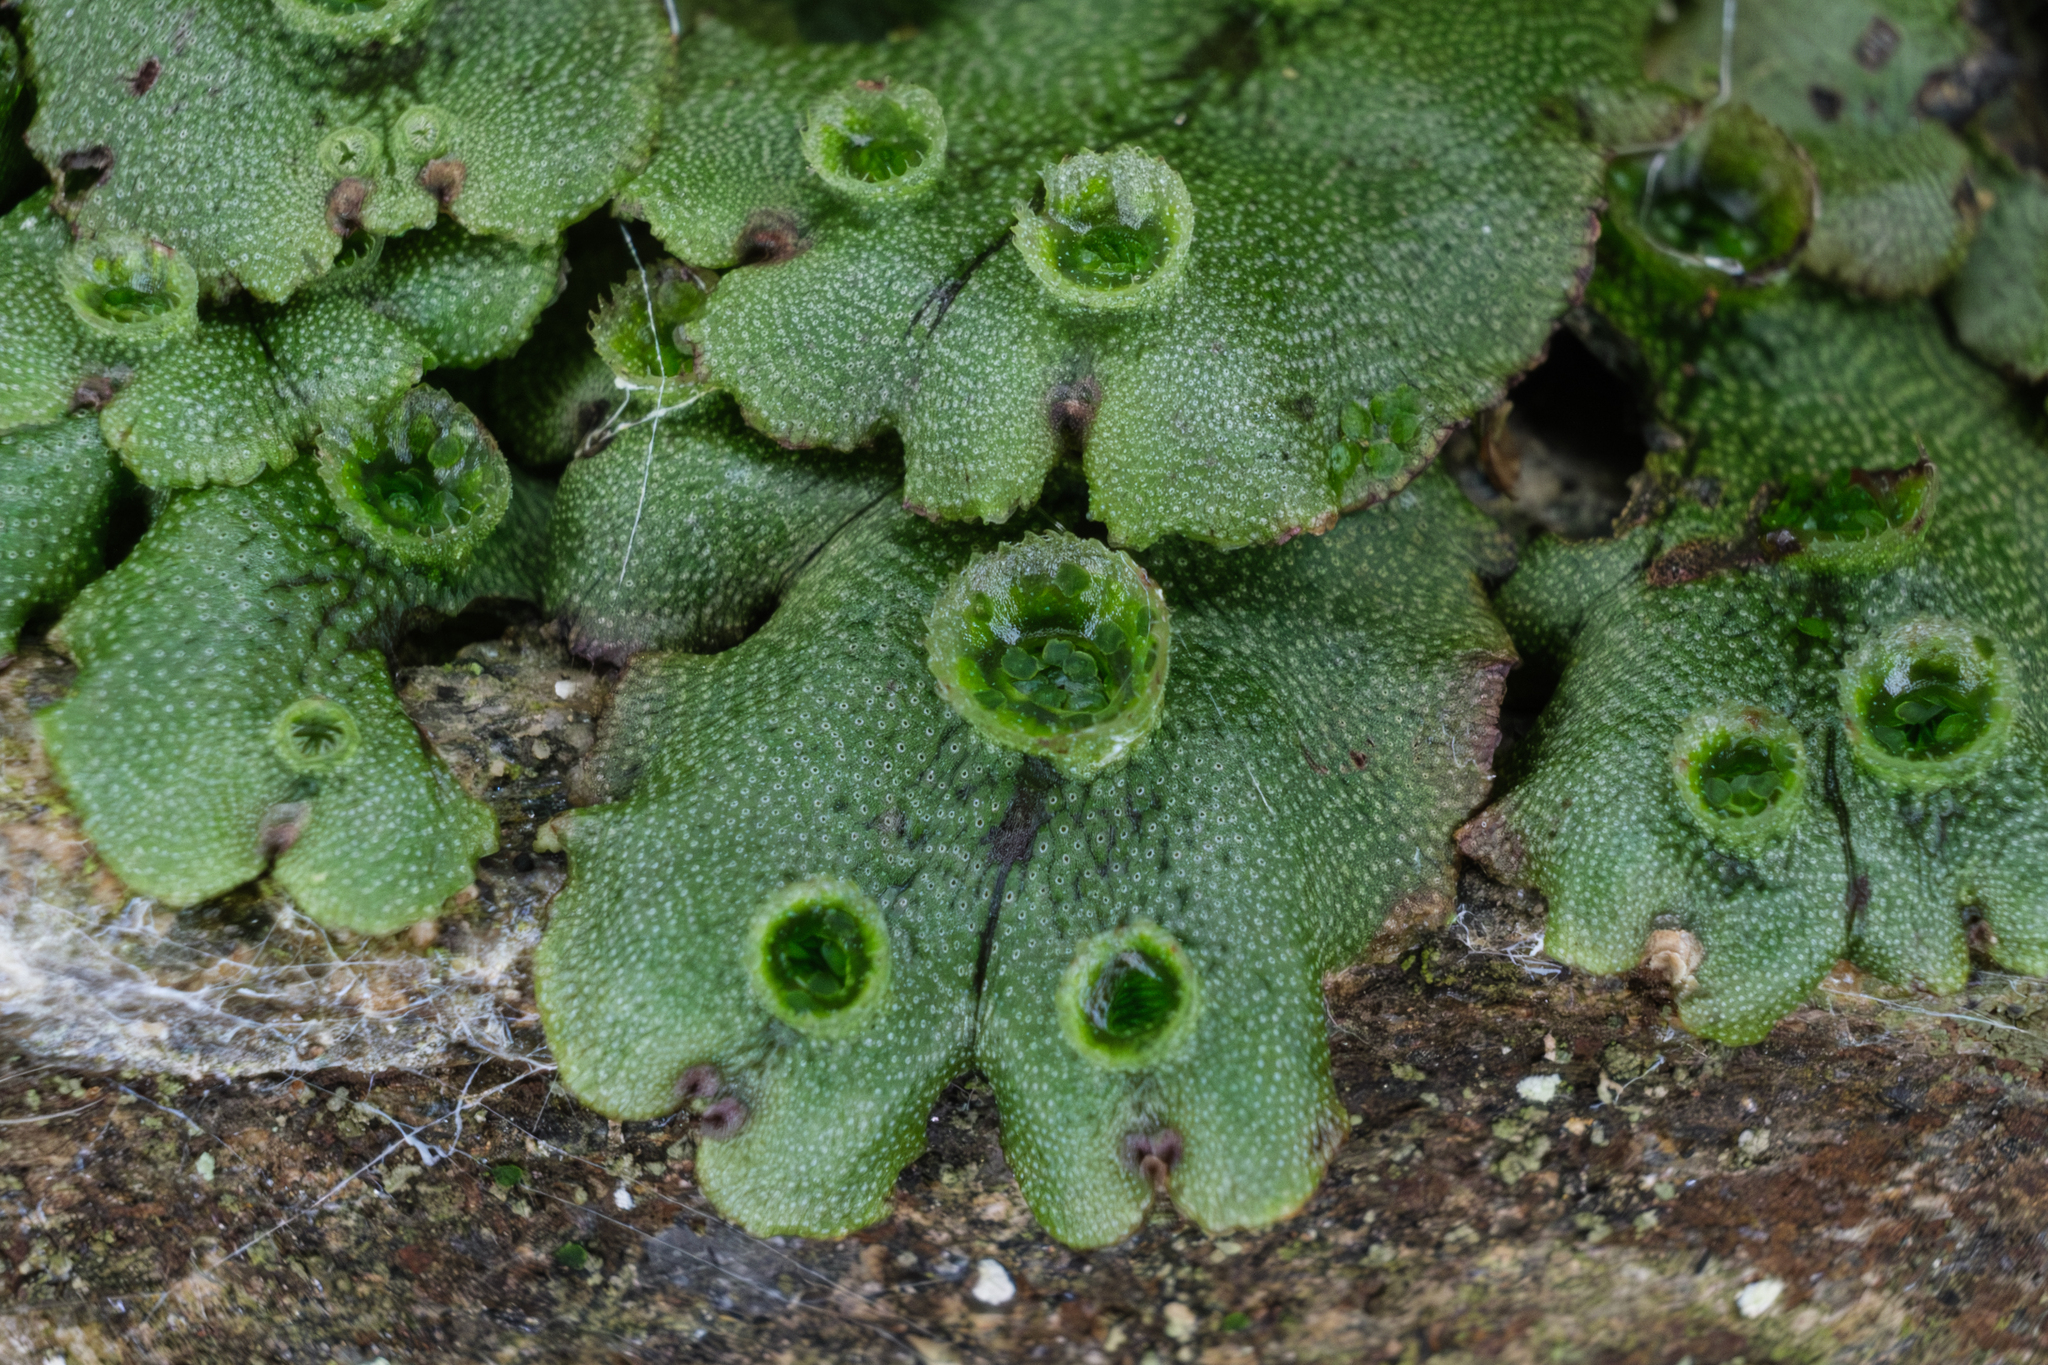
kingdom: Plantae
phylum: Marchantiophyta
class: Marchantiopsida
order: Marchantiales
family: Marchantiaceae
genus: Marchantia
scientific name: Marchantia polymorpha
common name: Common liverwort
